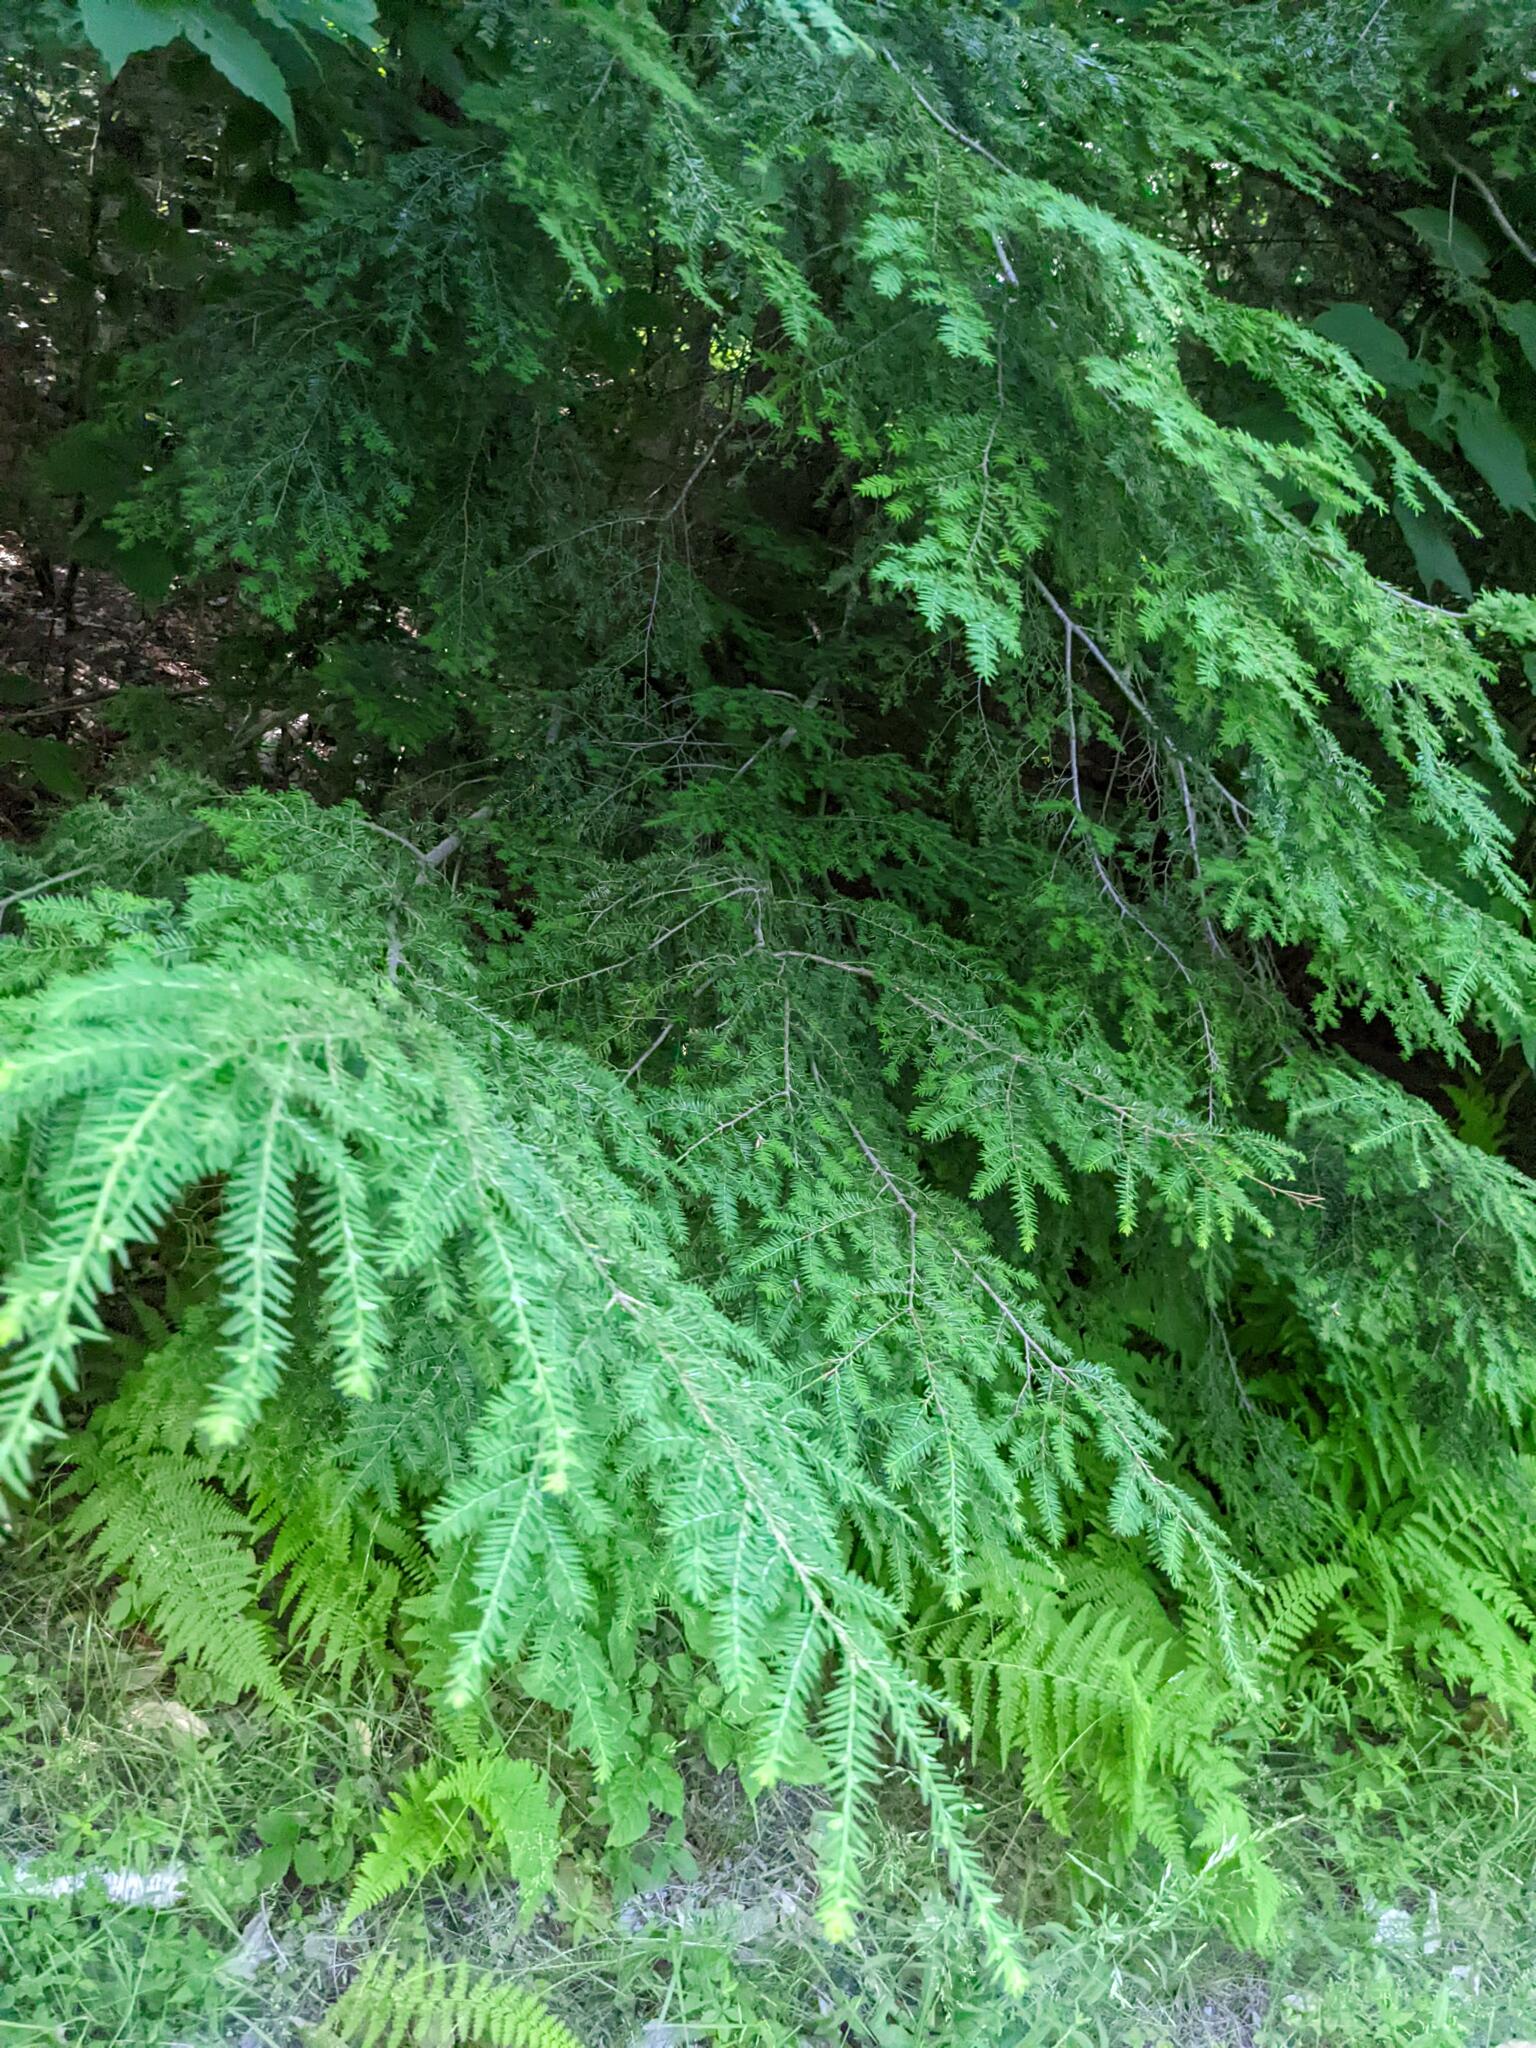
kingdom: Plantae
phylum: Tracheophyta
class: Pinopsida
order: Pinales
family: Pinaceae
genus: Tsuga
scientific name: Tsuga canadensis
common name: Eastern hemlock
